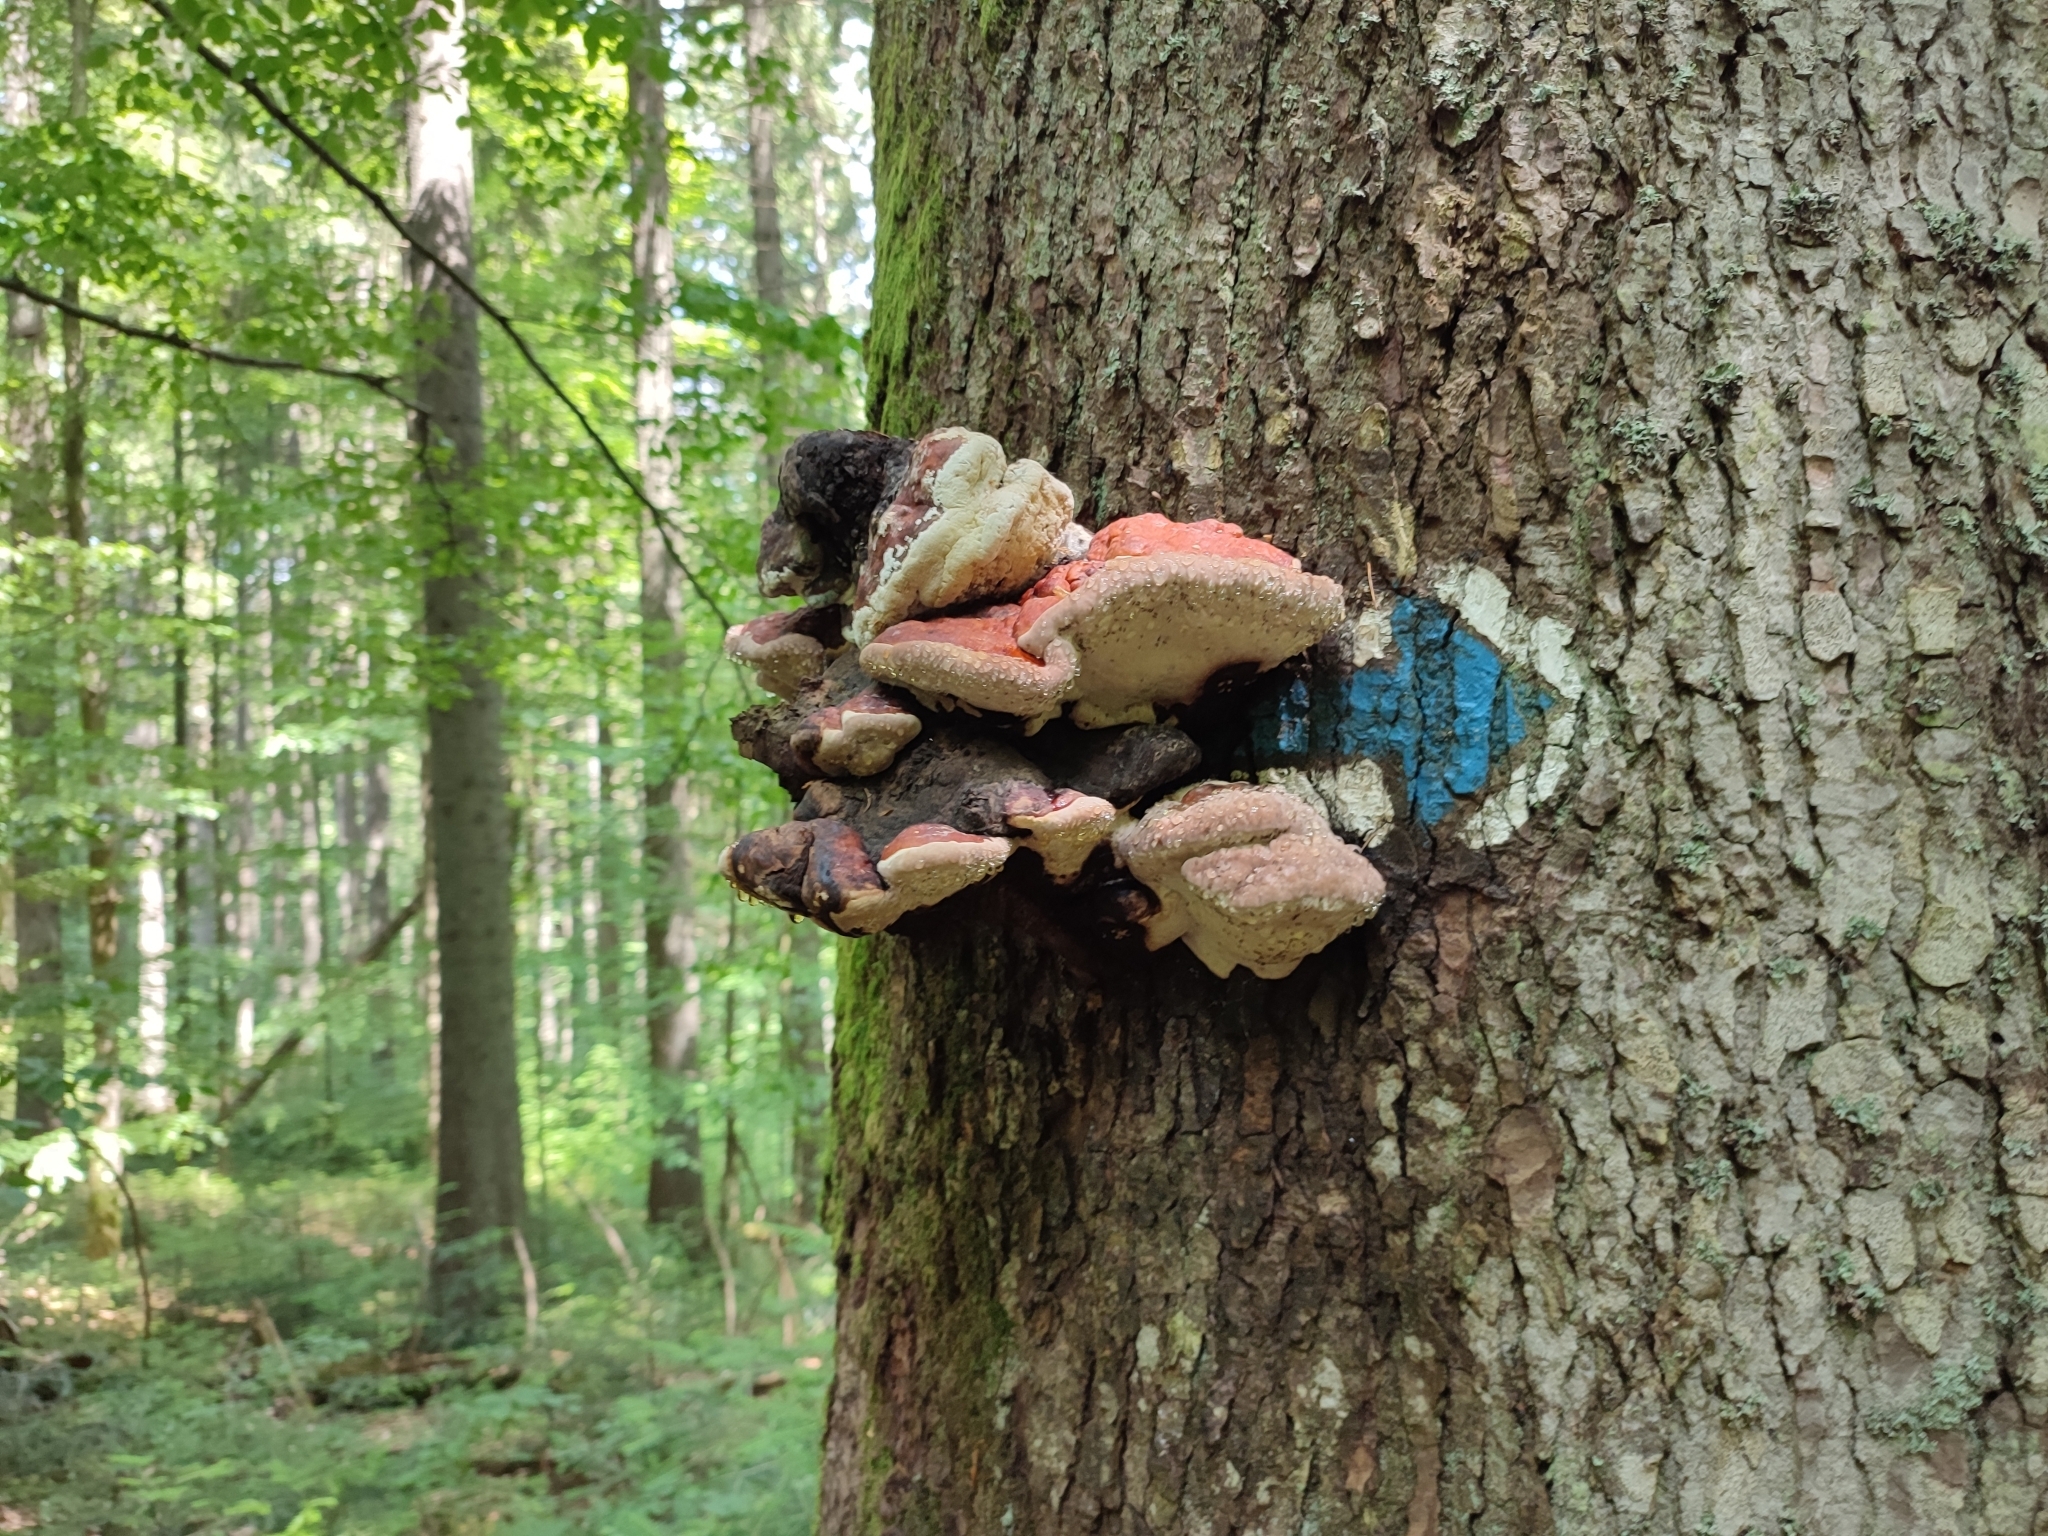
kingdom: Fungi
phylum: Basidiomycota
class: Agaricomycetes
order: Polyporales
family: Fomitopsidaceae
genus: Fomitopsis
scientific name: Fomitopsis pinicola
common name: Red-belted bracket
